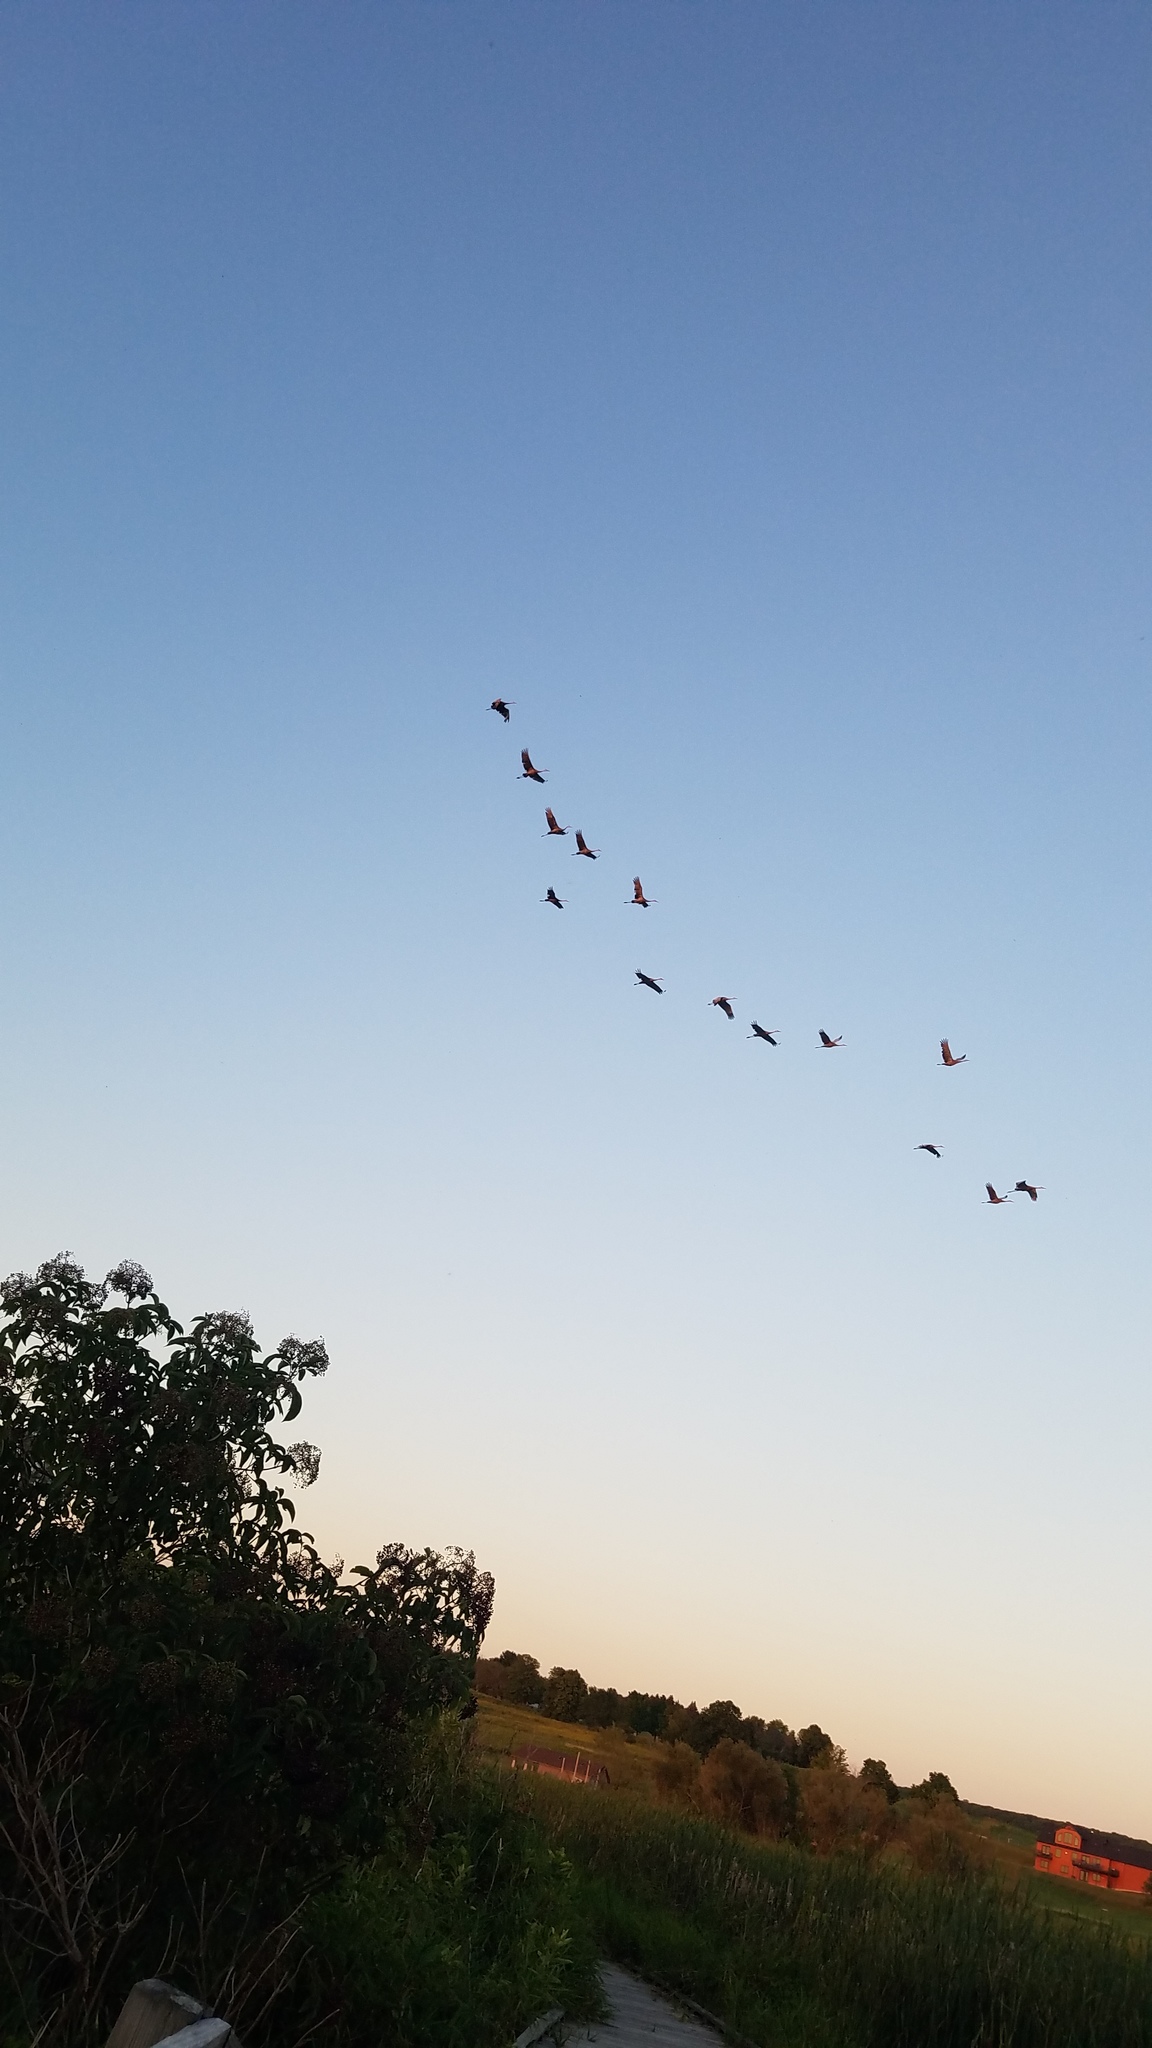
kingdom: Animalia
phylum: Chordata
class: Aves
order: Gruiformes
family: Gruidae
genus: Grus
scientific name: Grus canadensis
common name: Sandhill crane
